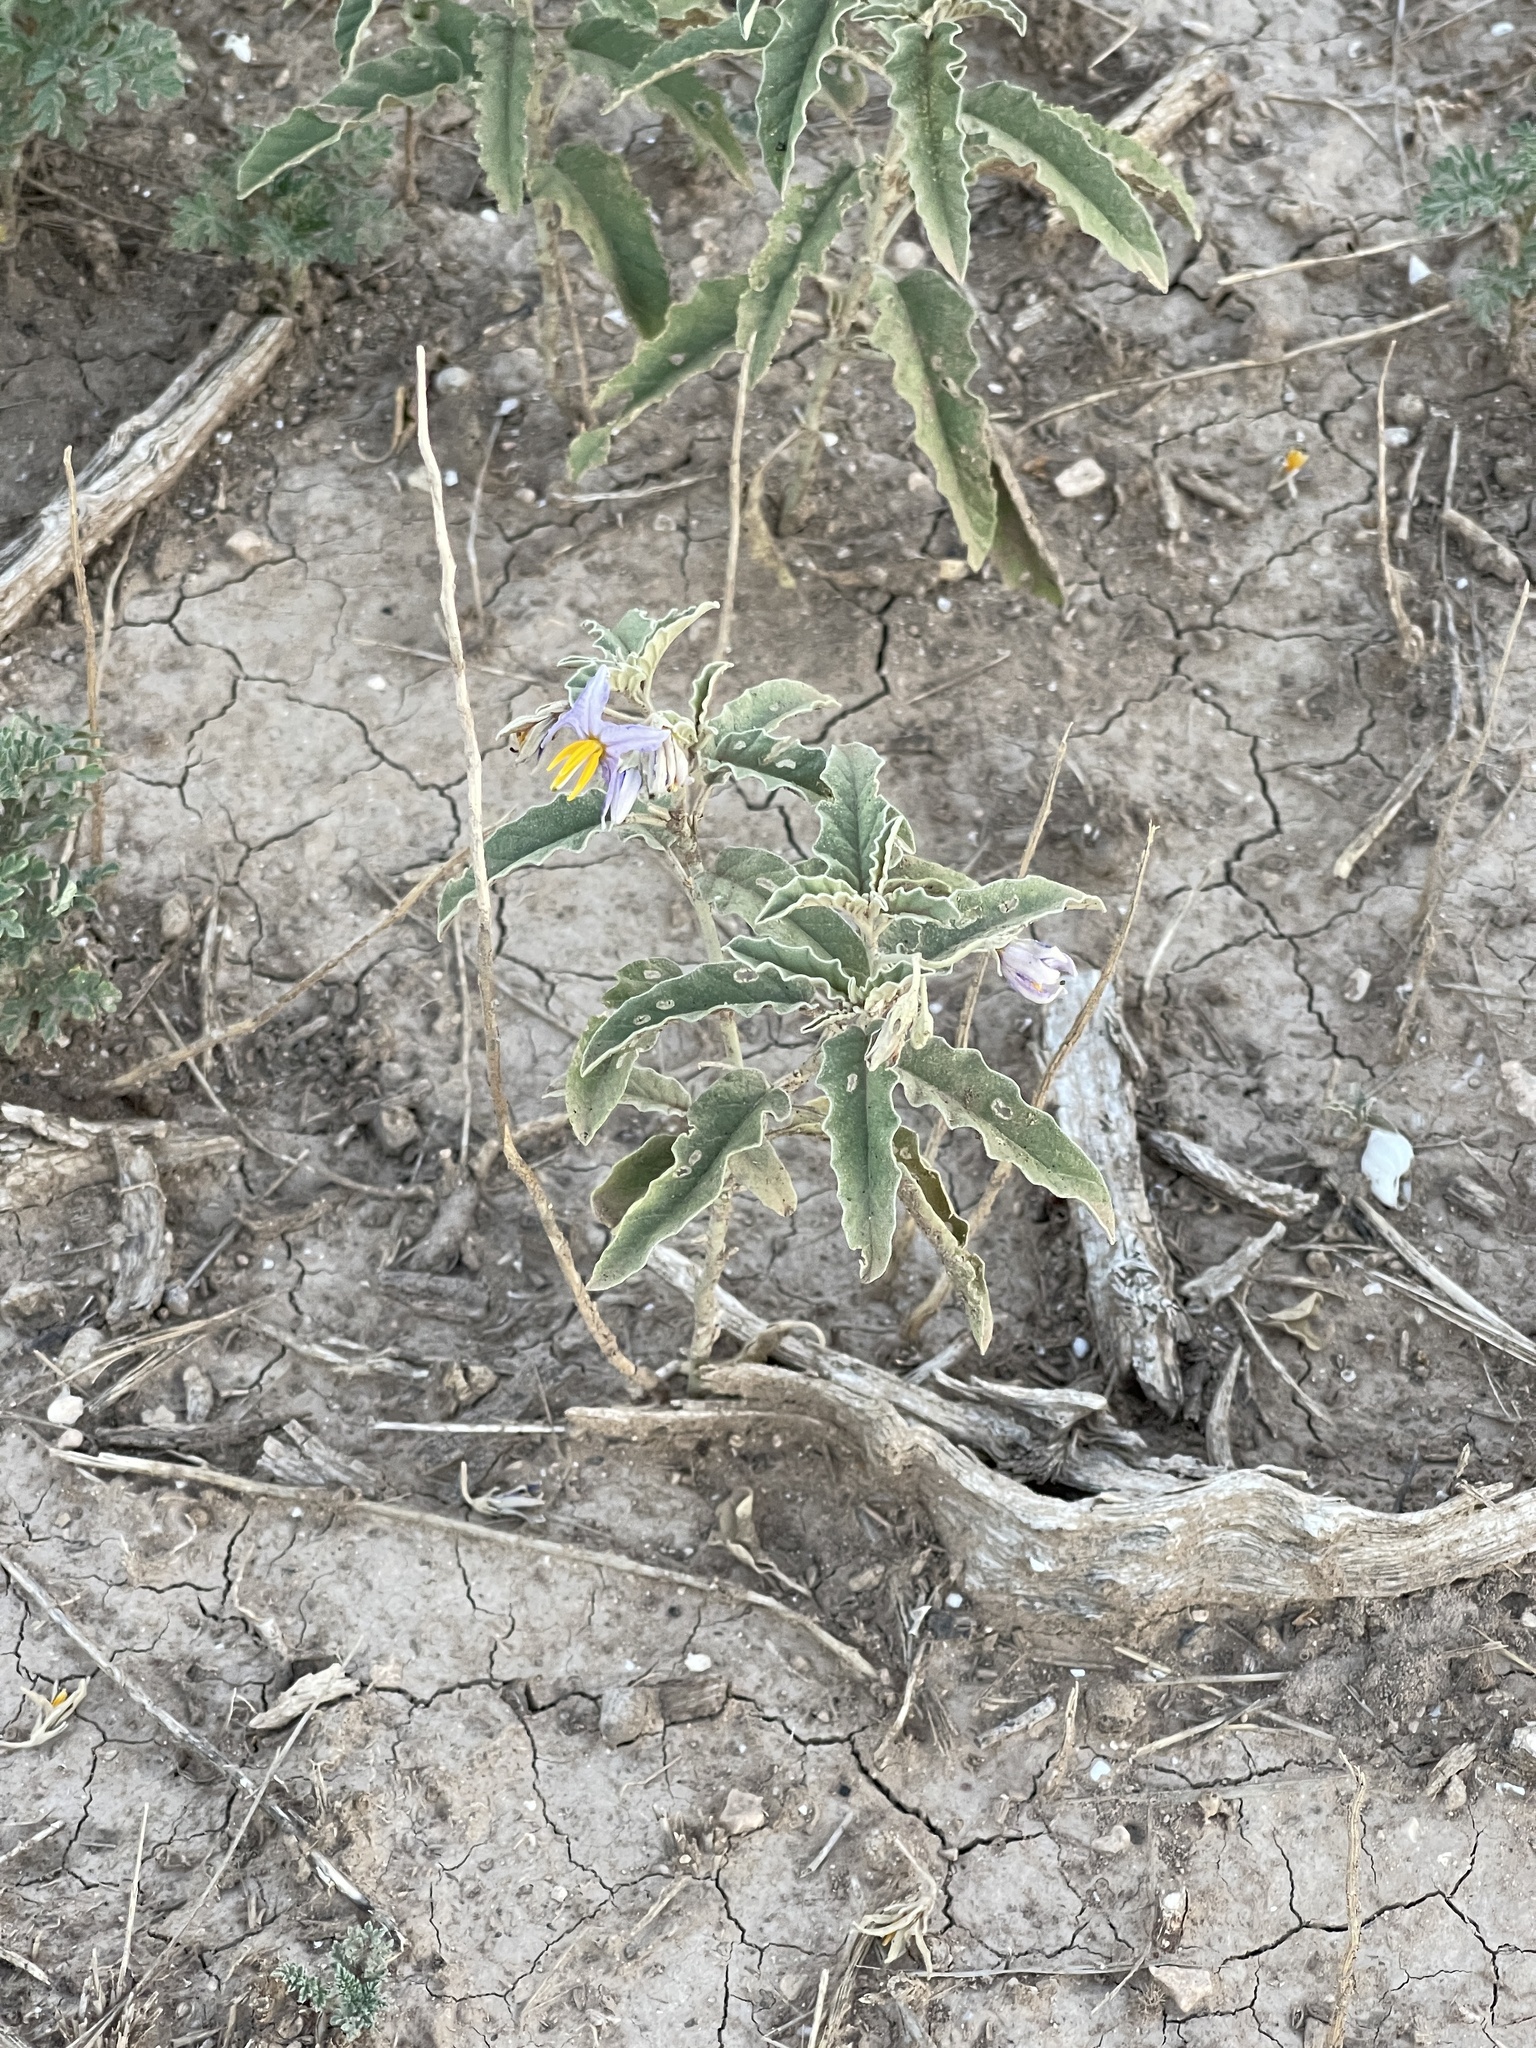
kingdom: Plantae
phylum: Tracheophyta
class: Magnoliopsida
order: Solanales
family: Solanaceae
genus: Solanum
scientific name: Solanum elaeagnifolium
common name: Silverleaf nightshade
